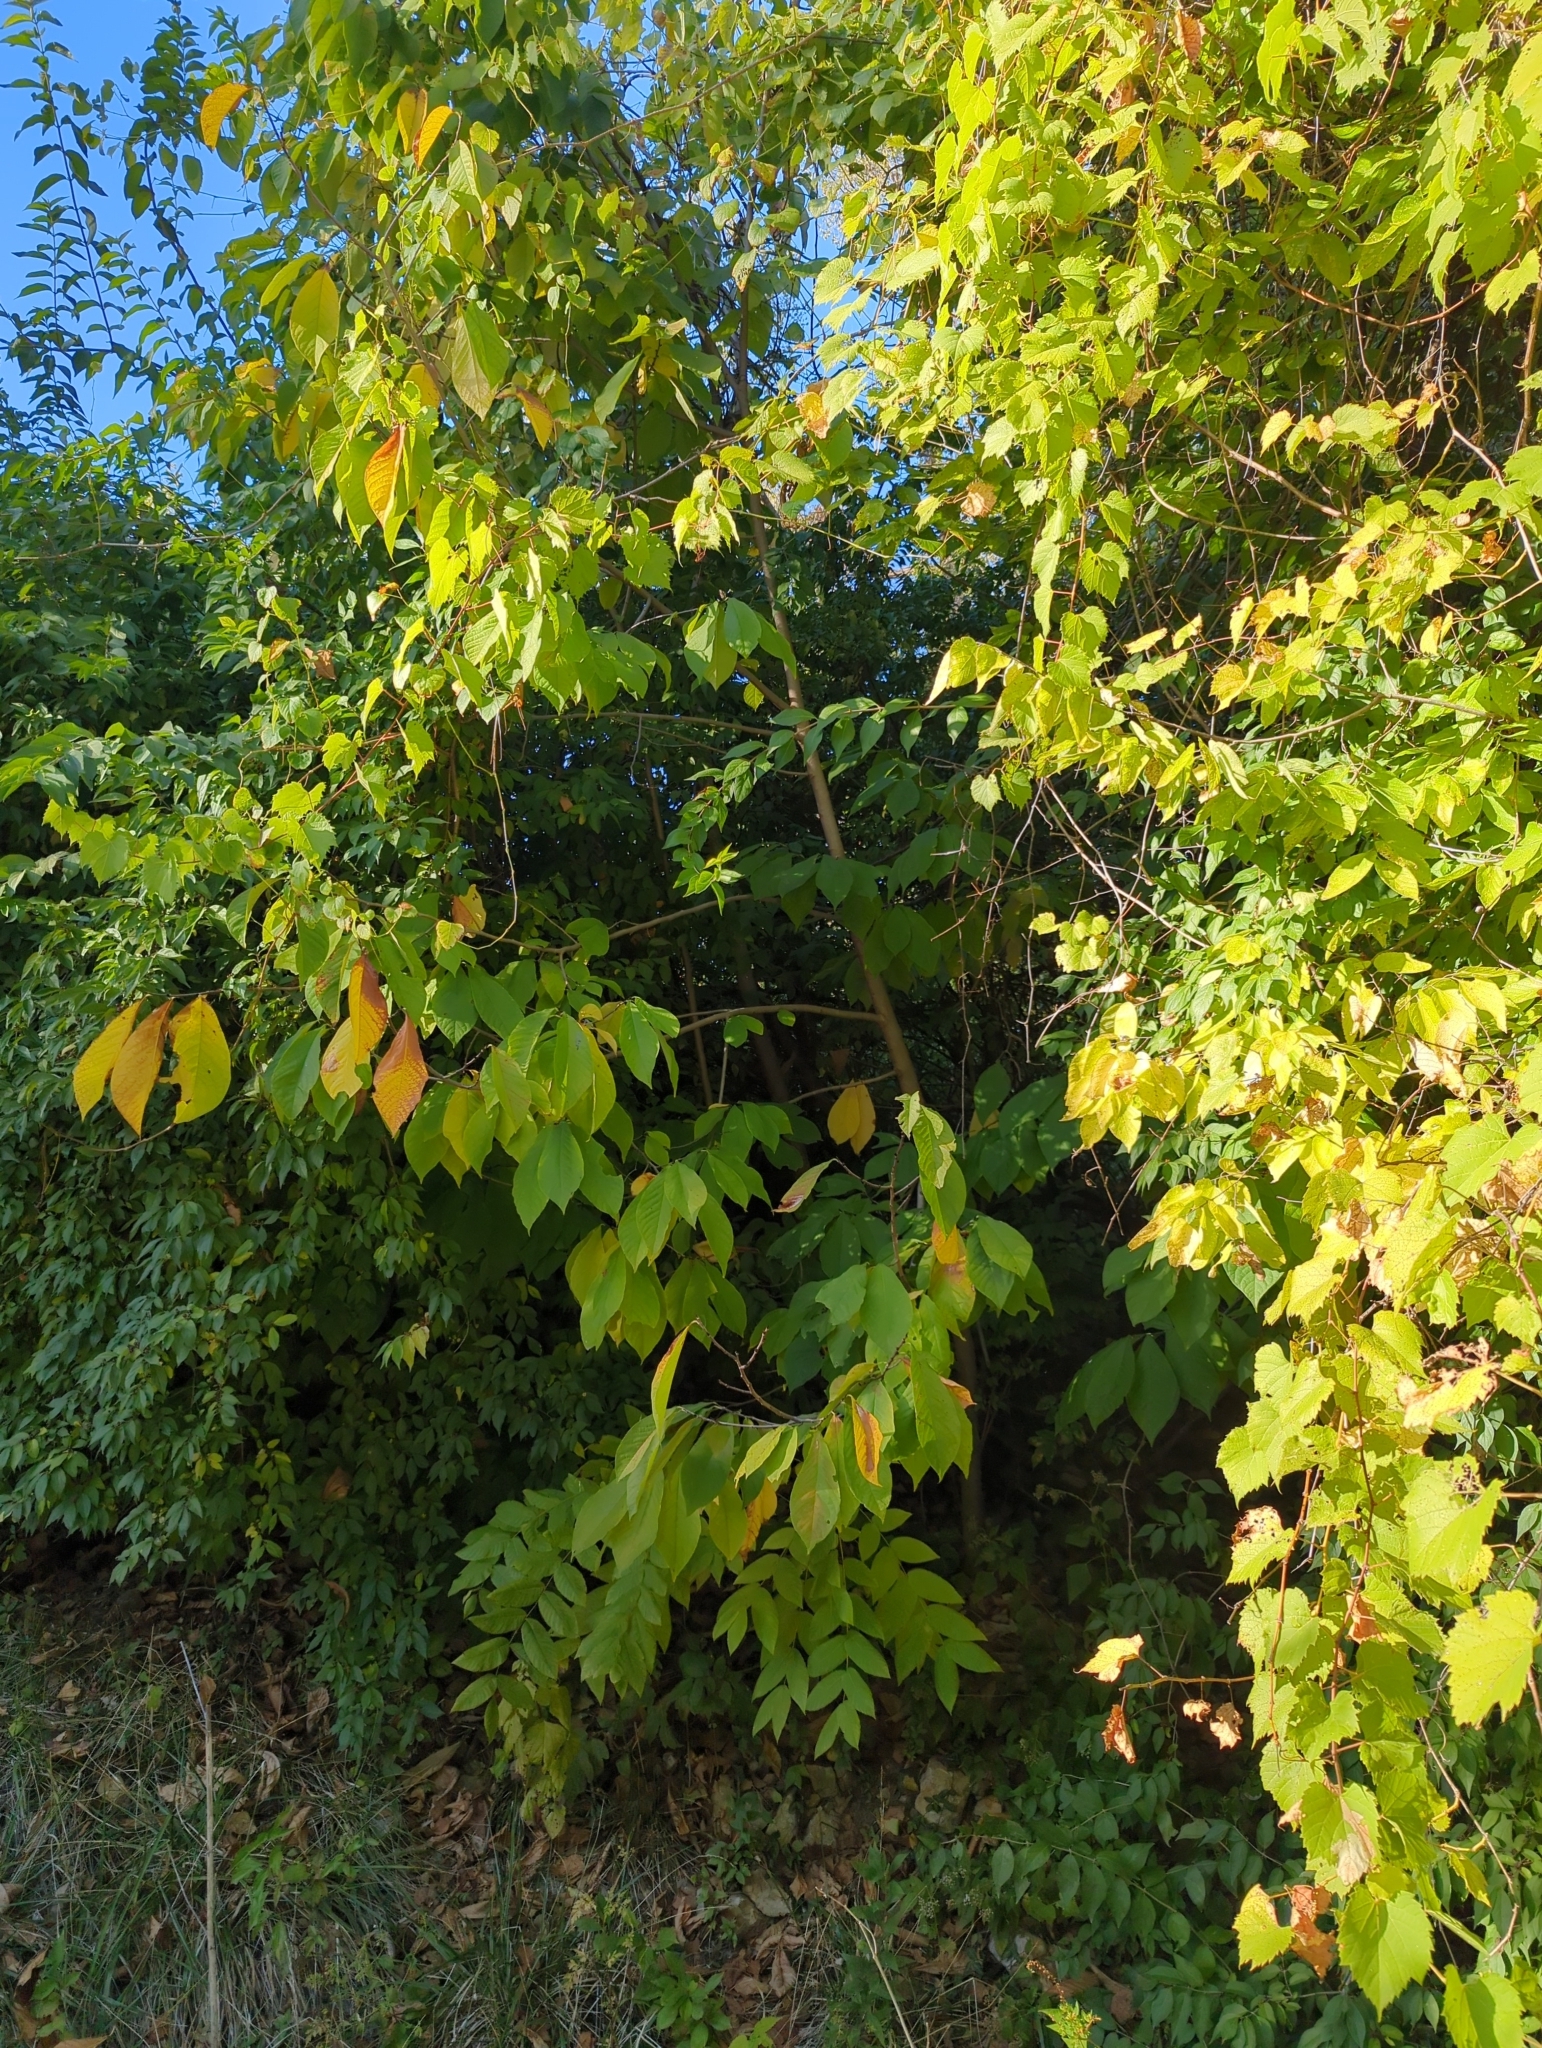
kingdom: Plantae
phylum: Tracheophyta
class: Magnoliopsida
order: Magnoliales
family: Annonaceae
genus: Asimina
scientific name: Asimina triloba
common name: Dog-banana
